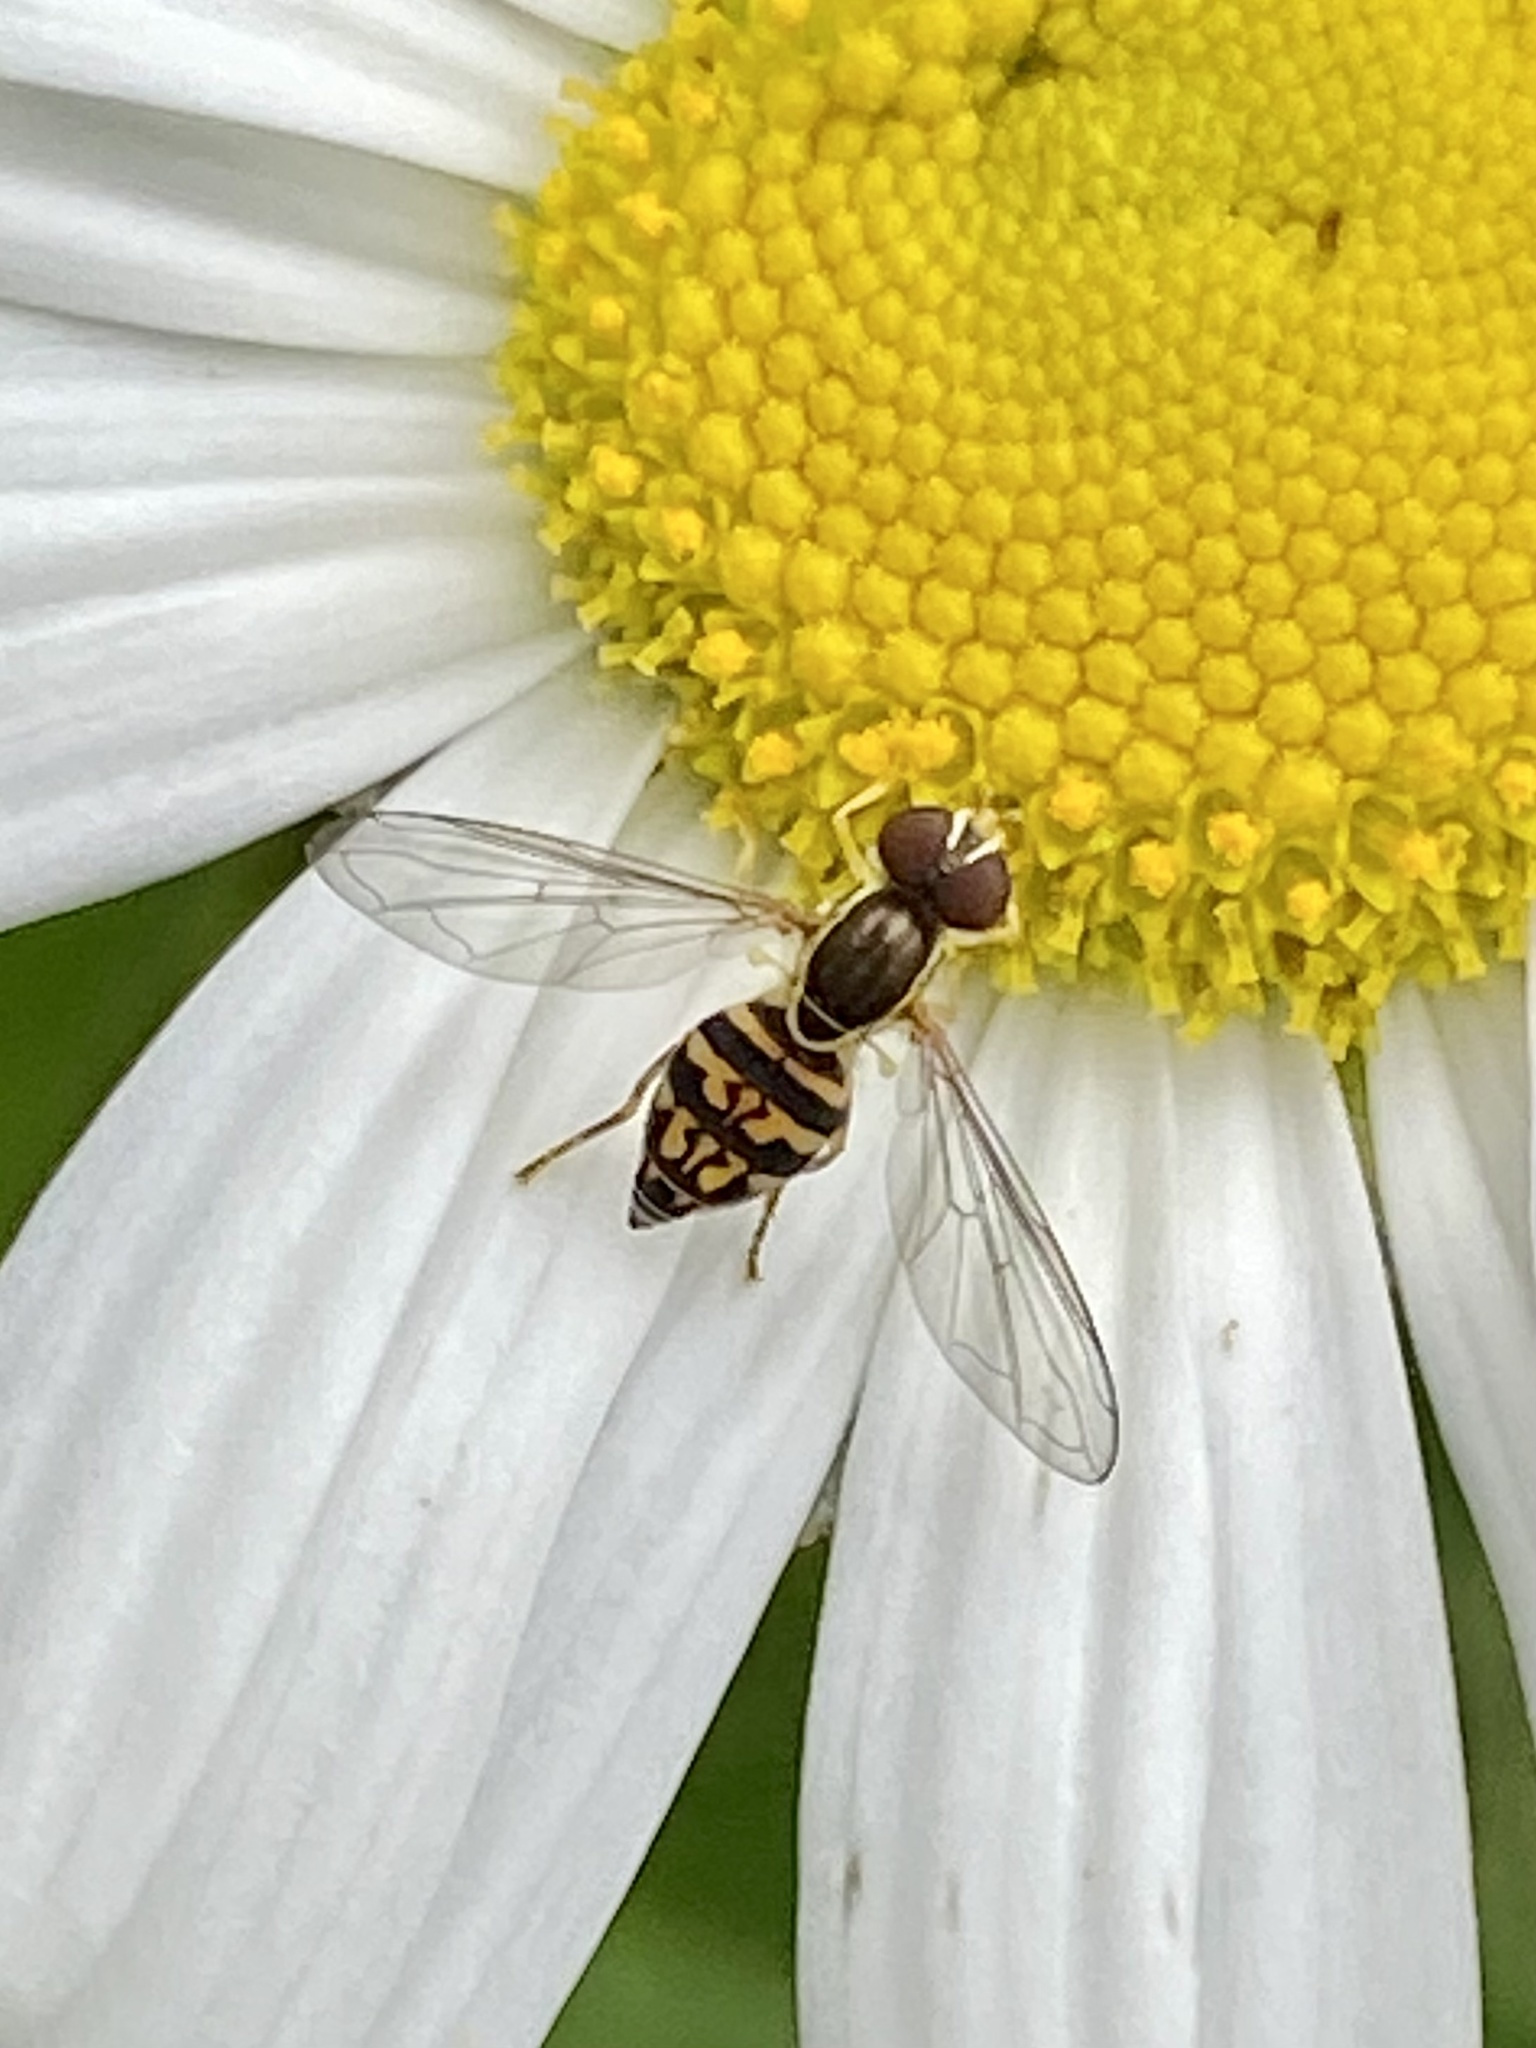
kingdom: Animalia
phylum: Arthropoda
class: Insecta
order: Diptera
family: Syrphidae
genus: Toxomerus
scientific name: Toxomerus geminatus
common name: Eastern calligrapher
